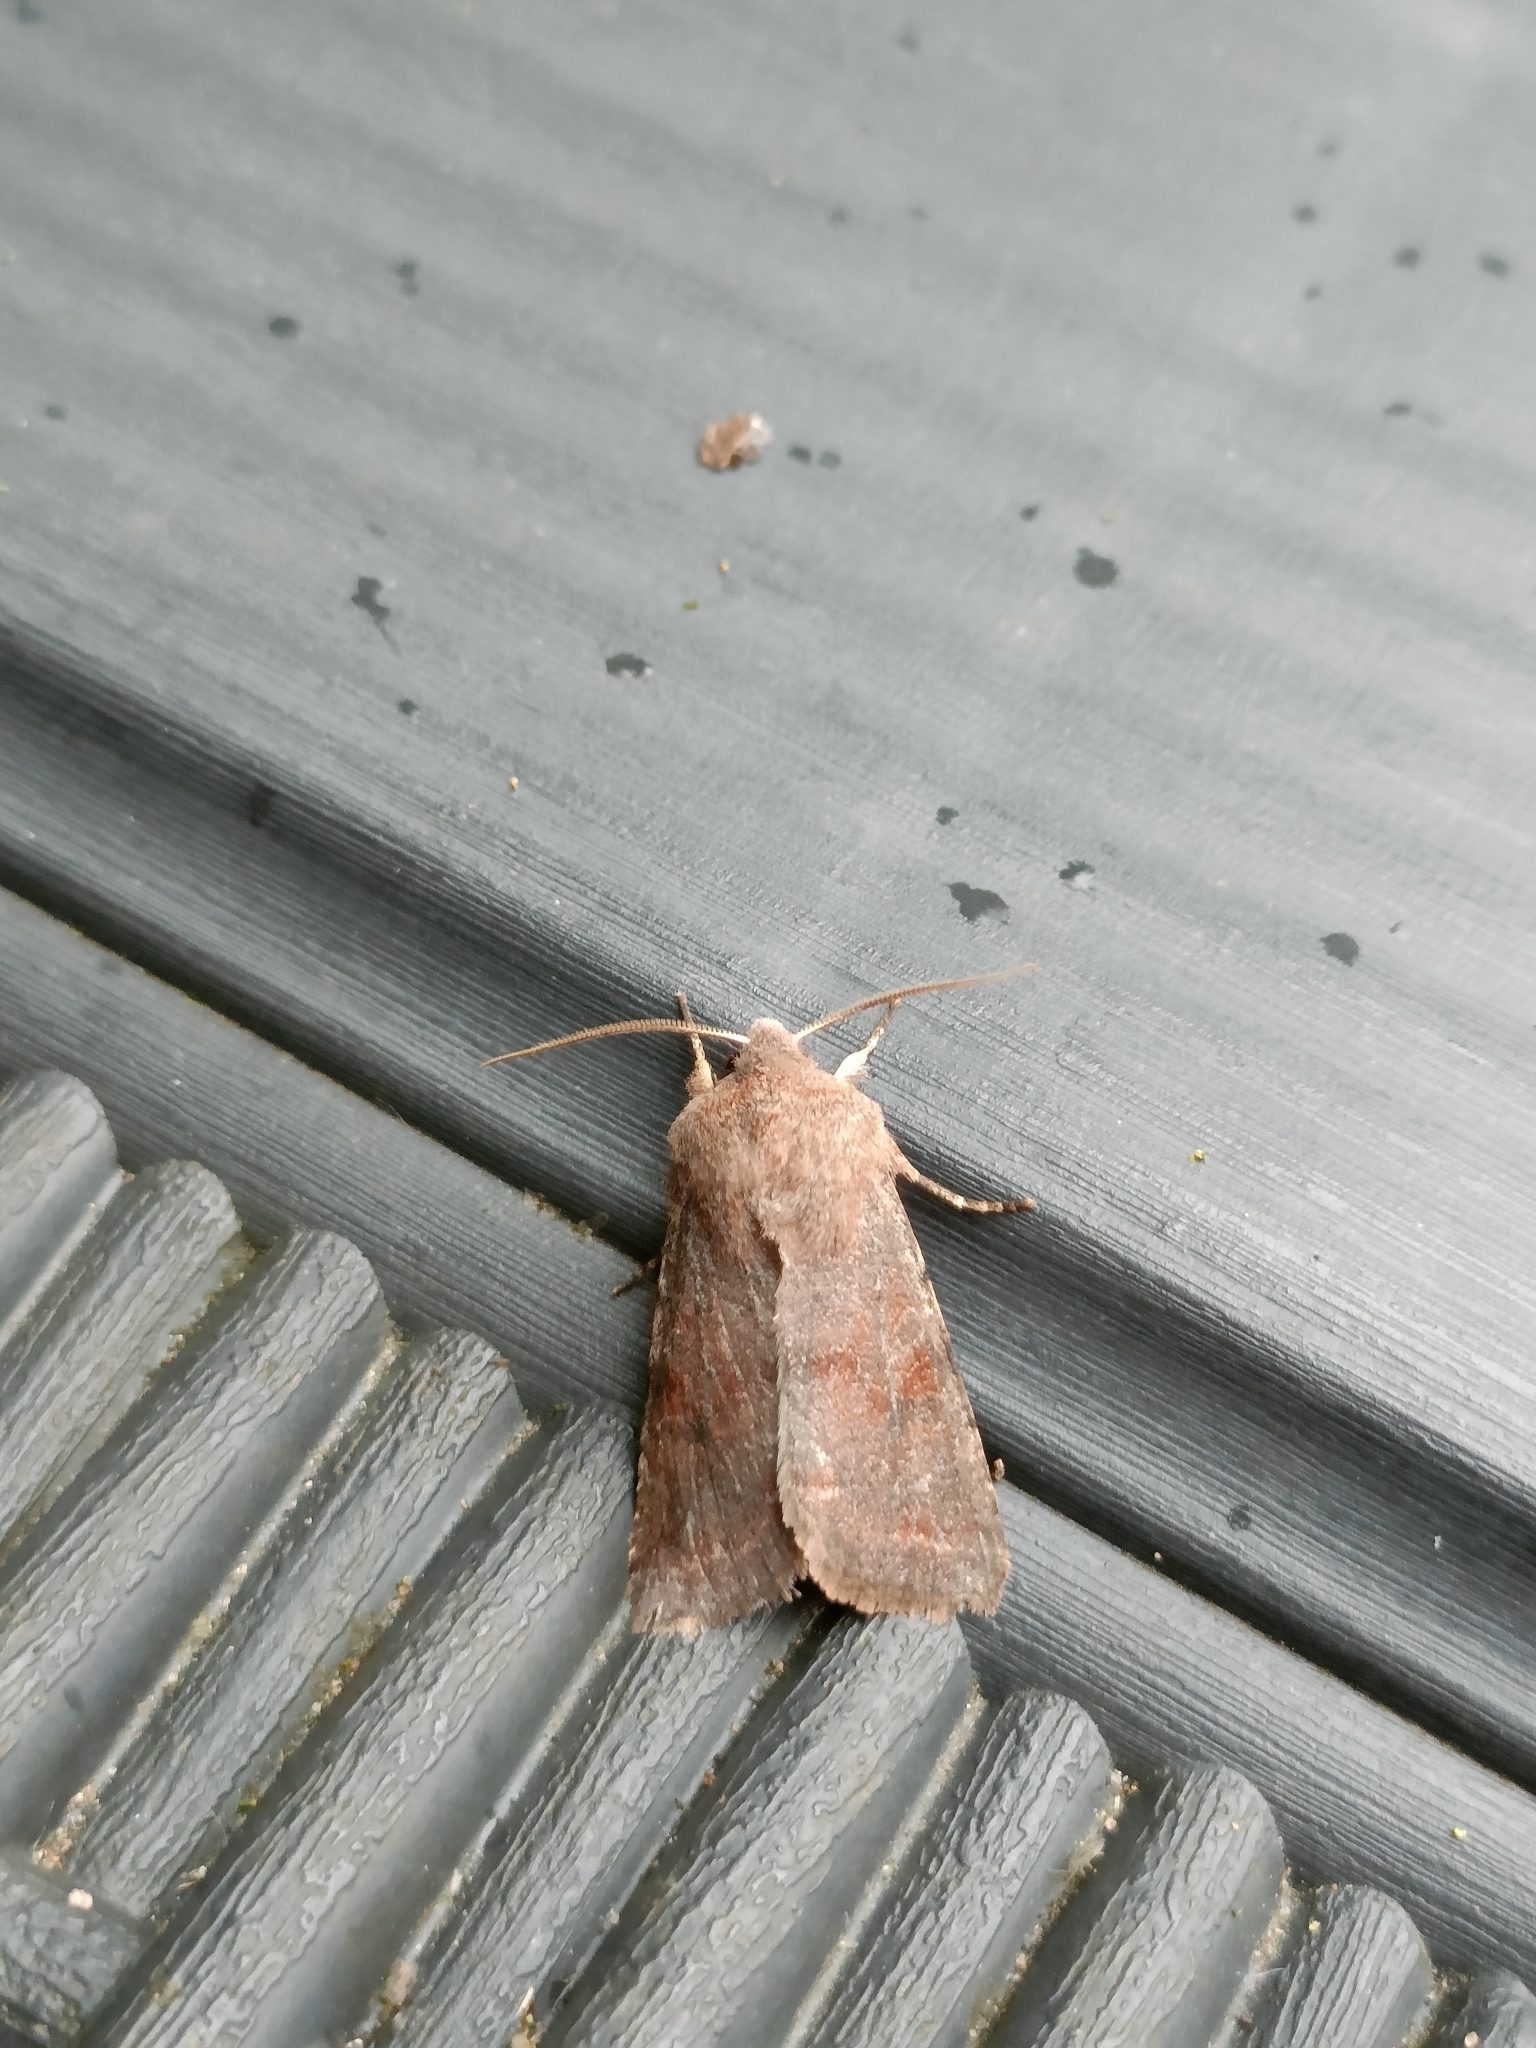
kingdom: Animalia
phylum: Arthropoda
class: Insecta
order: Lepidoptera
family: Noctuidae
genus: Orthosia
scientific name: Orthosia incerta
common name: Clouded drab
